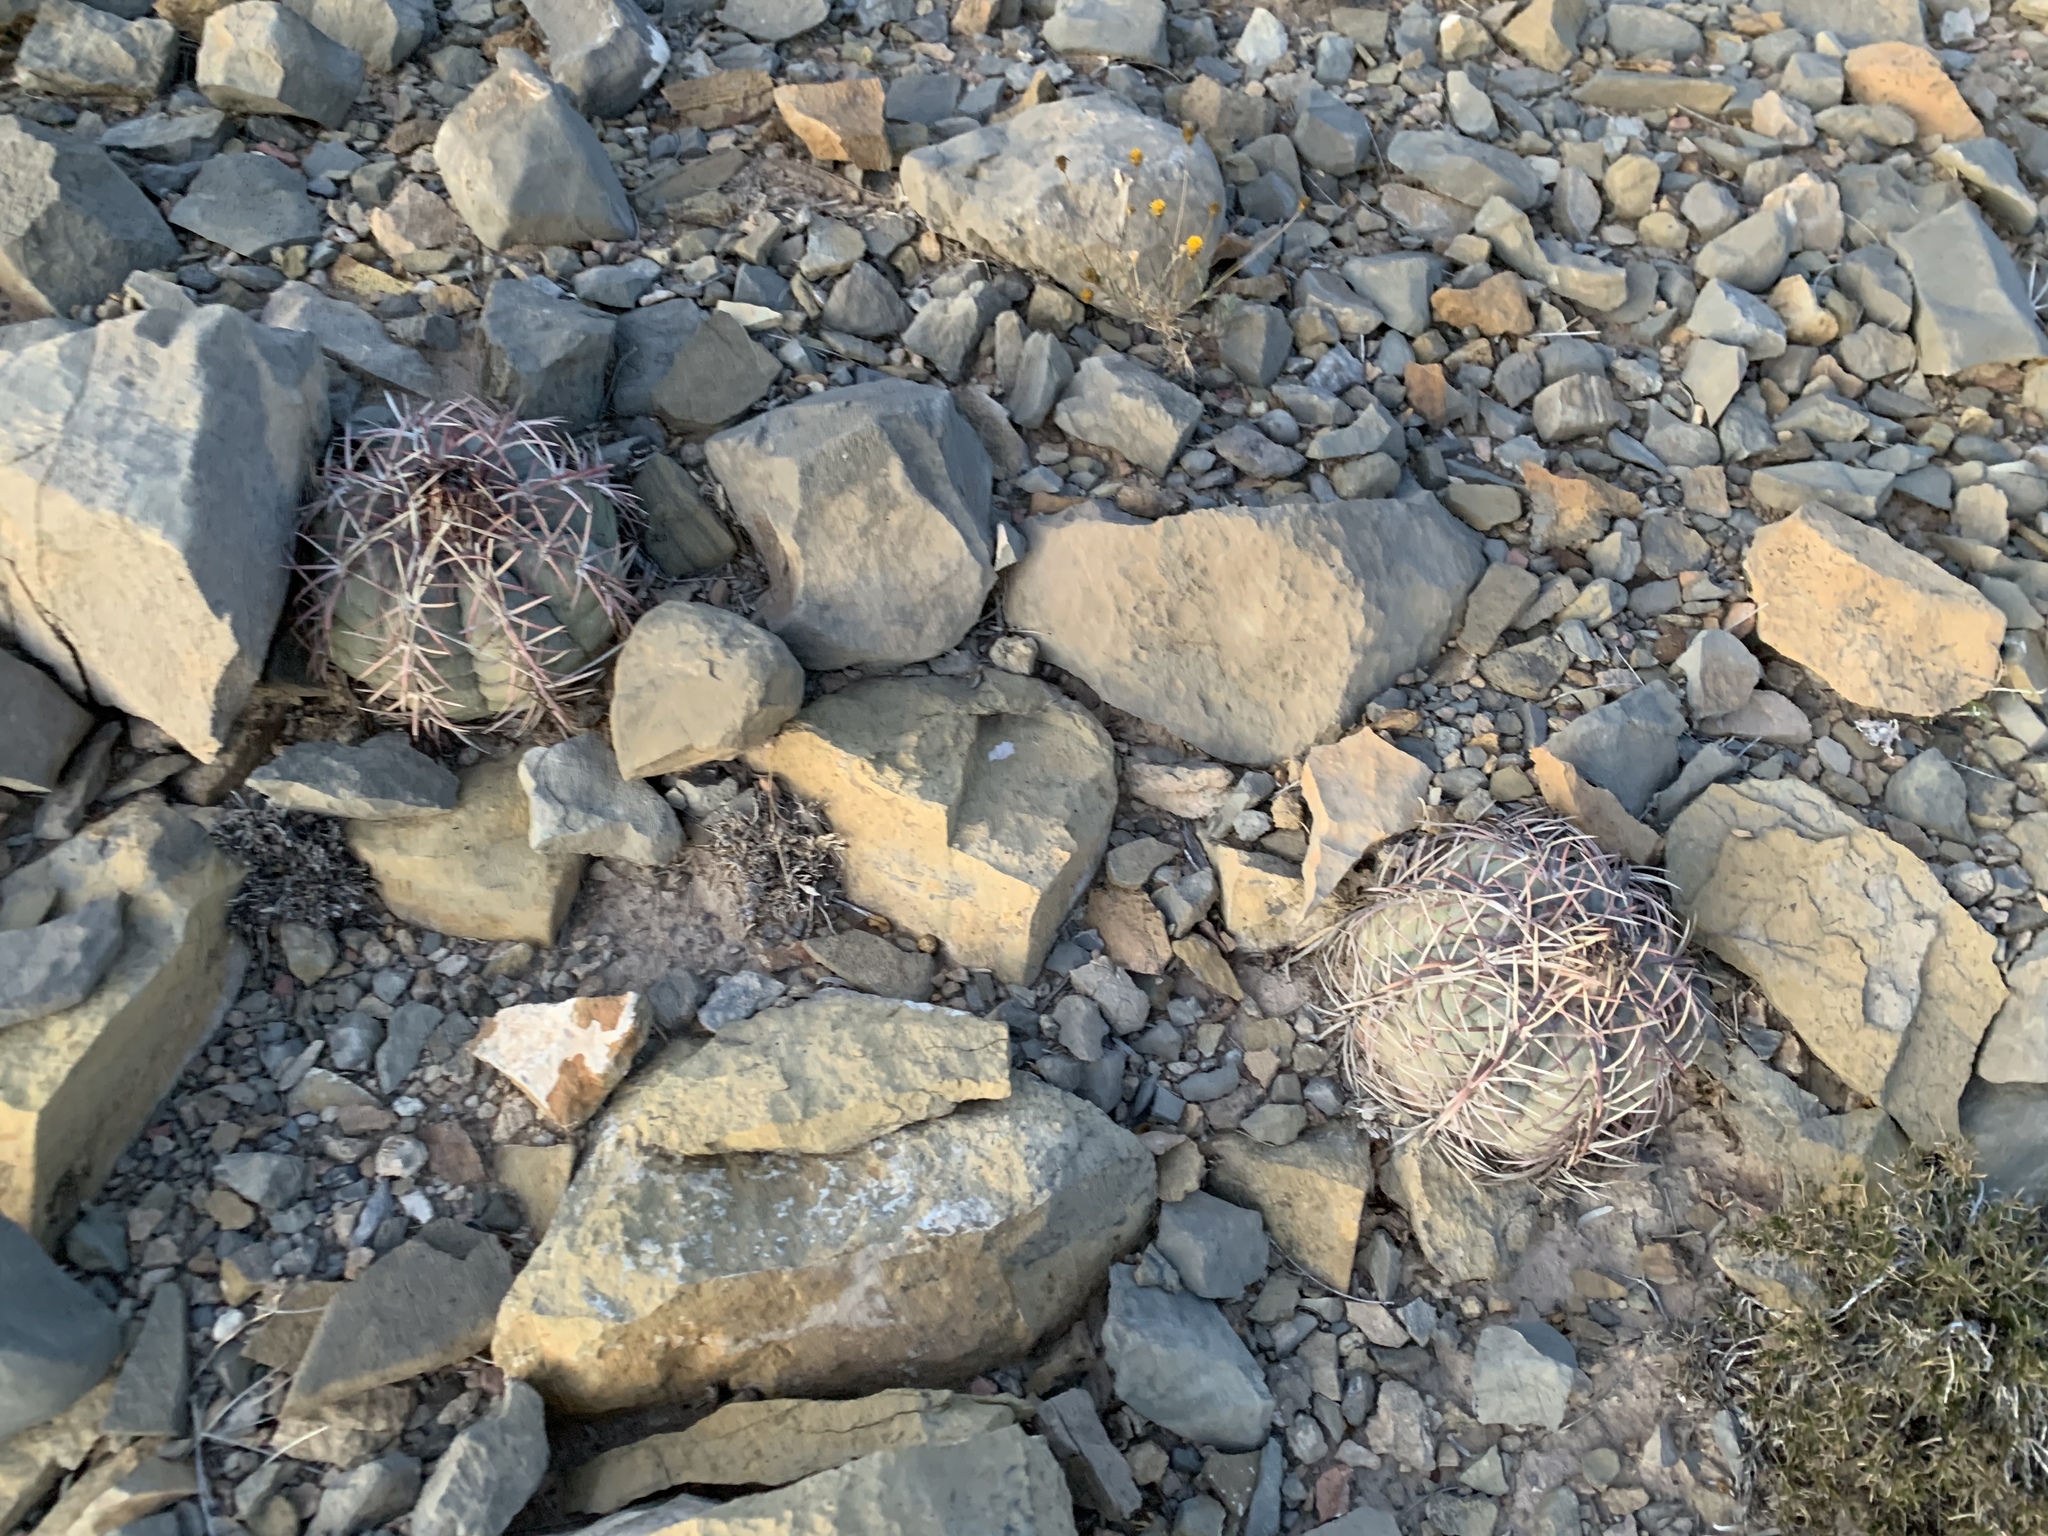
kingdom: Plantae
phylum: Tracheophyta
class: Magnoliopsida
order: Caryophyllales
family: Cactaceae
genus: Echinocactus
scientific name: Echinocactus horizonthalonius
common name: Devilshead
